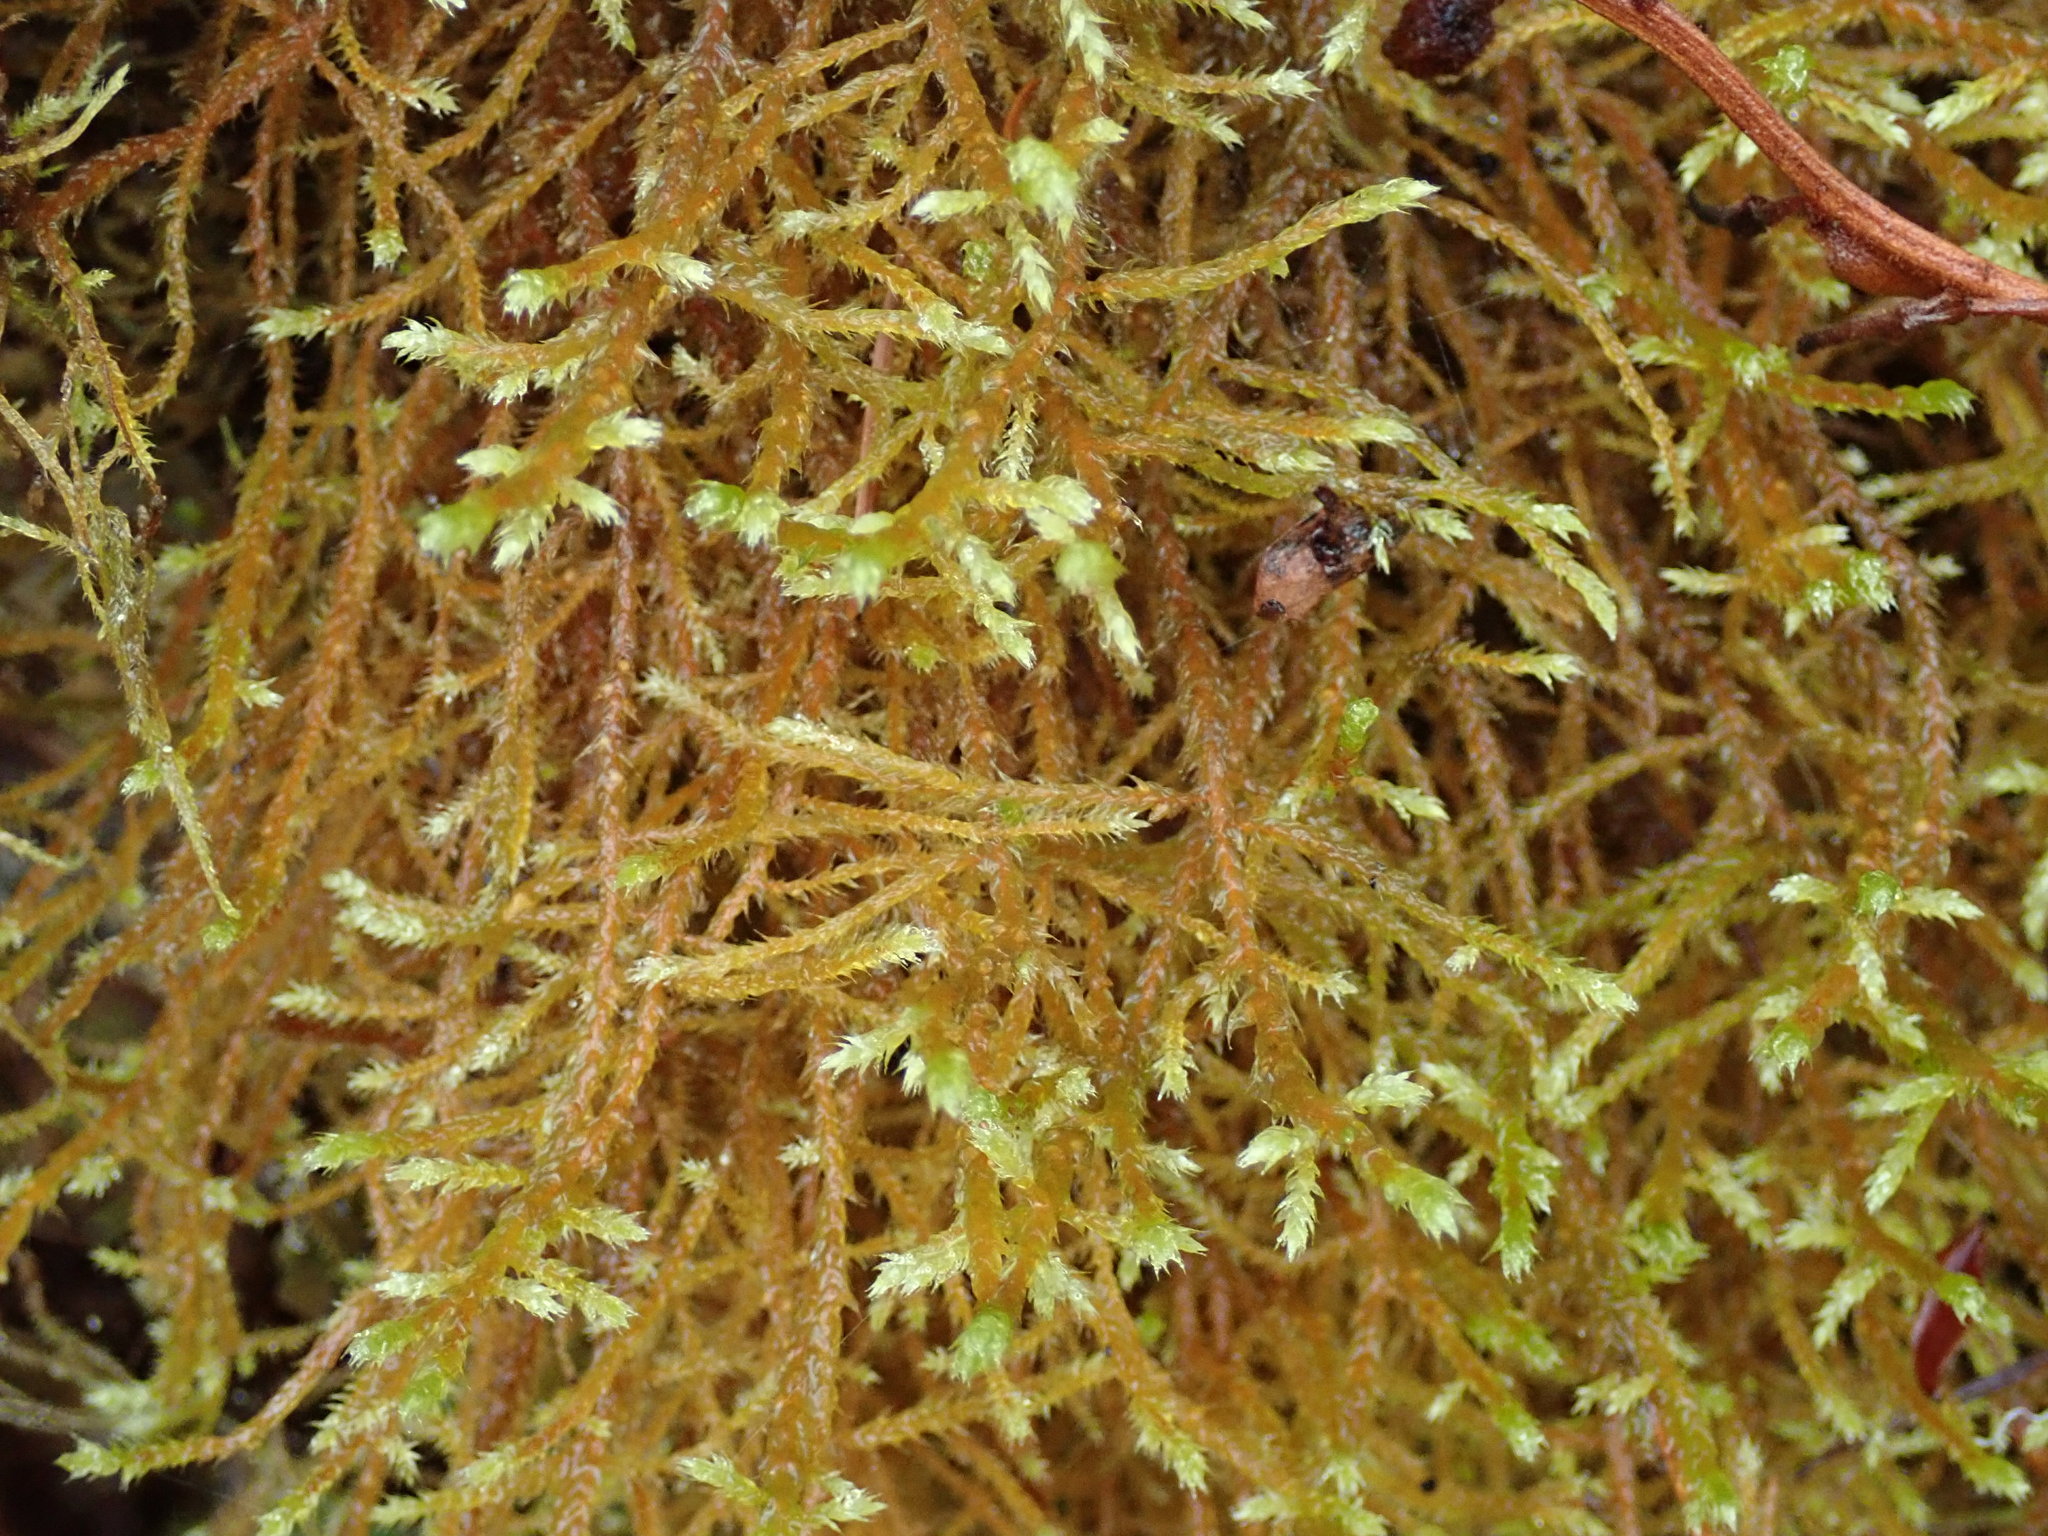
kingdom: Plantae
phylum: Bryophyta
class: Bryopsida
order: Hypnales
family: Antitrichiaceae
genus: Antitrichia
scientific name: Antitrichia curtipendula
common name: Pendulous wing-moss
